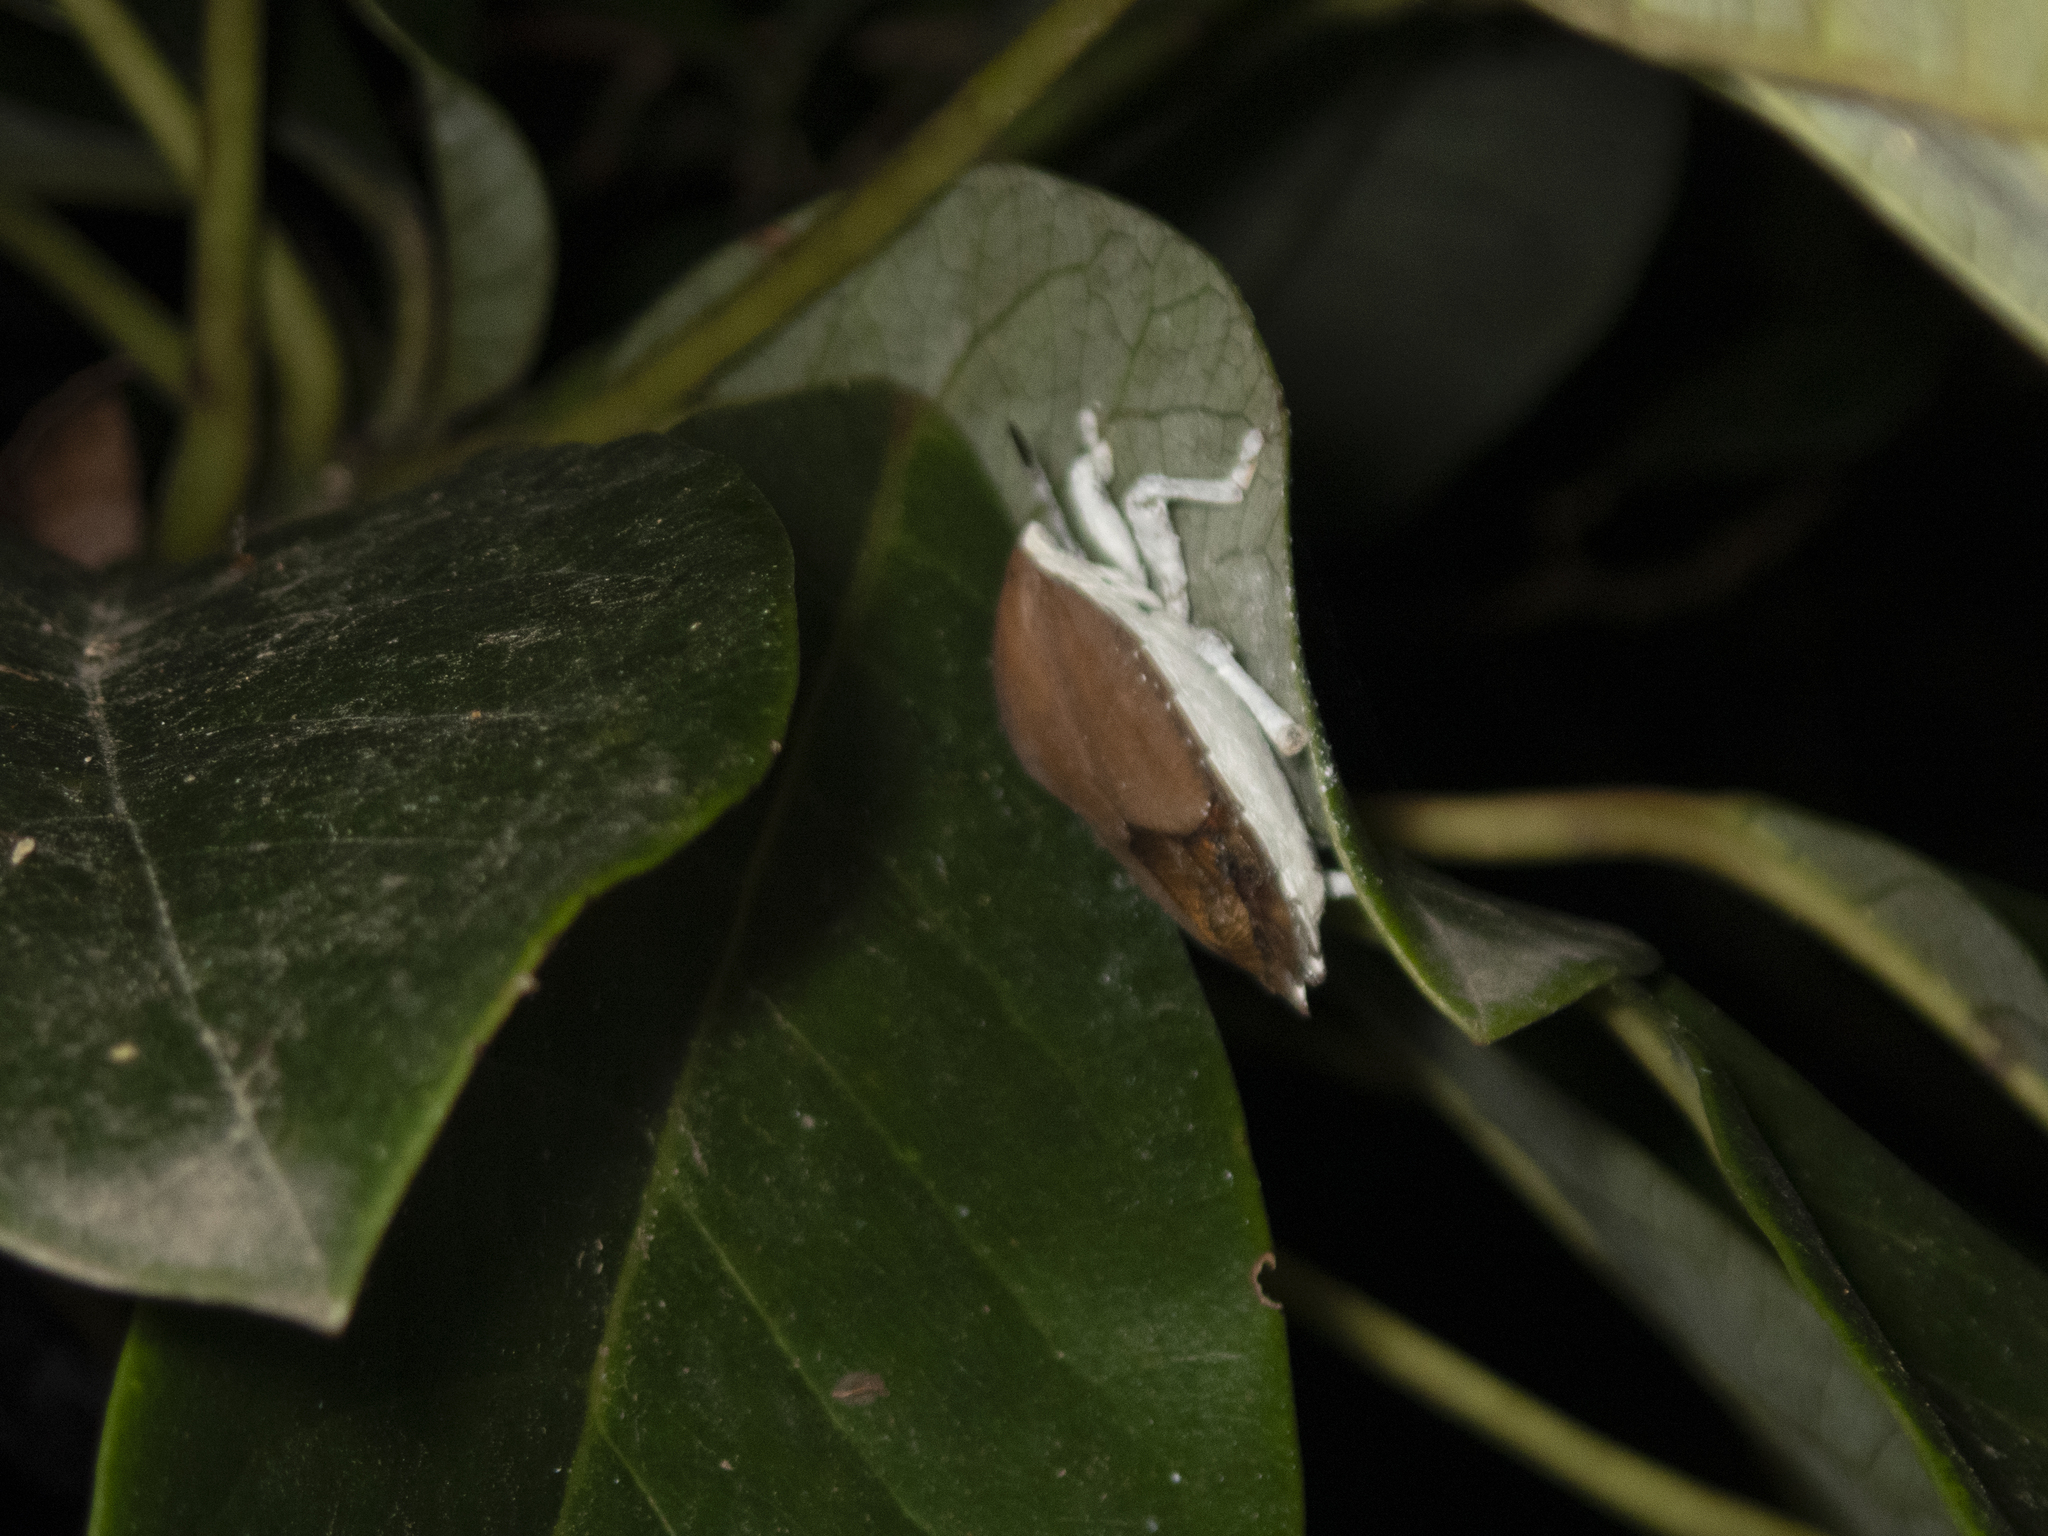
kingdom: Animalia
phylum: Arthropoda
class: Insecta
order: Hemiptera
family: Tessaratomidae
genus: Tessaratoma
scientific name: Tessaratoma papillosa
